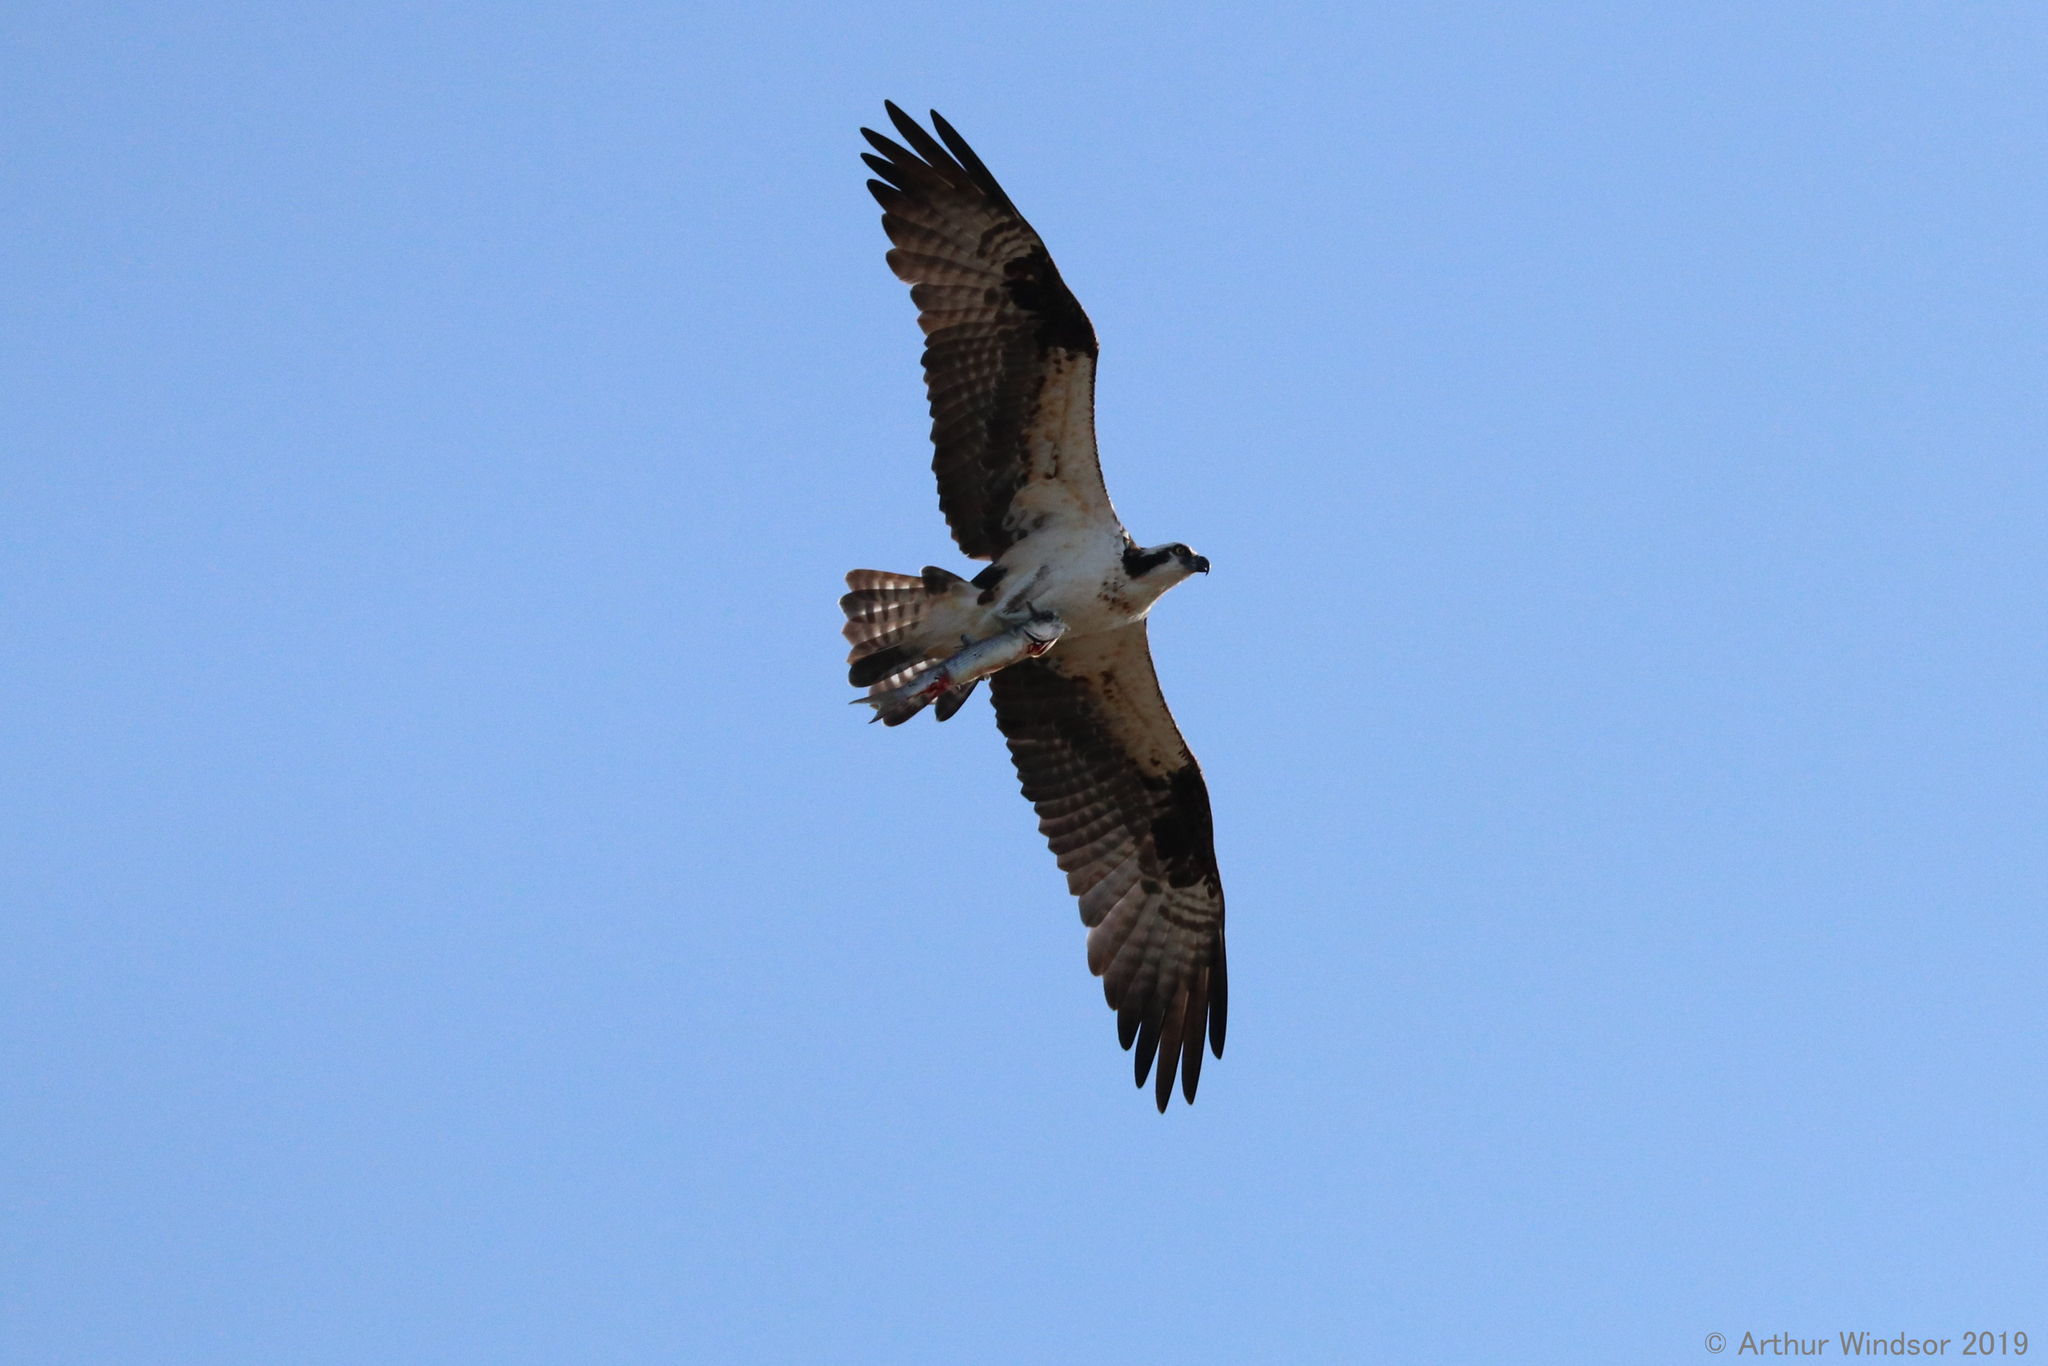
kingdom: Animalia
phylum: Chordata
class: Aves
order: Accipitriformes
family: Pandionidae
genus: Pandion
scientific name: Pandion haliaetus
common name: Osprey
